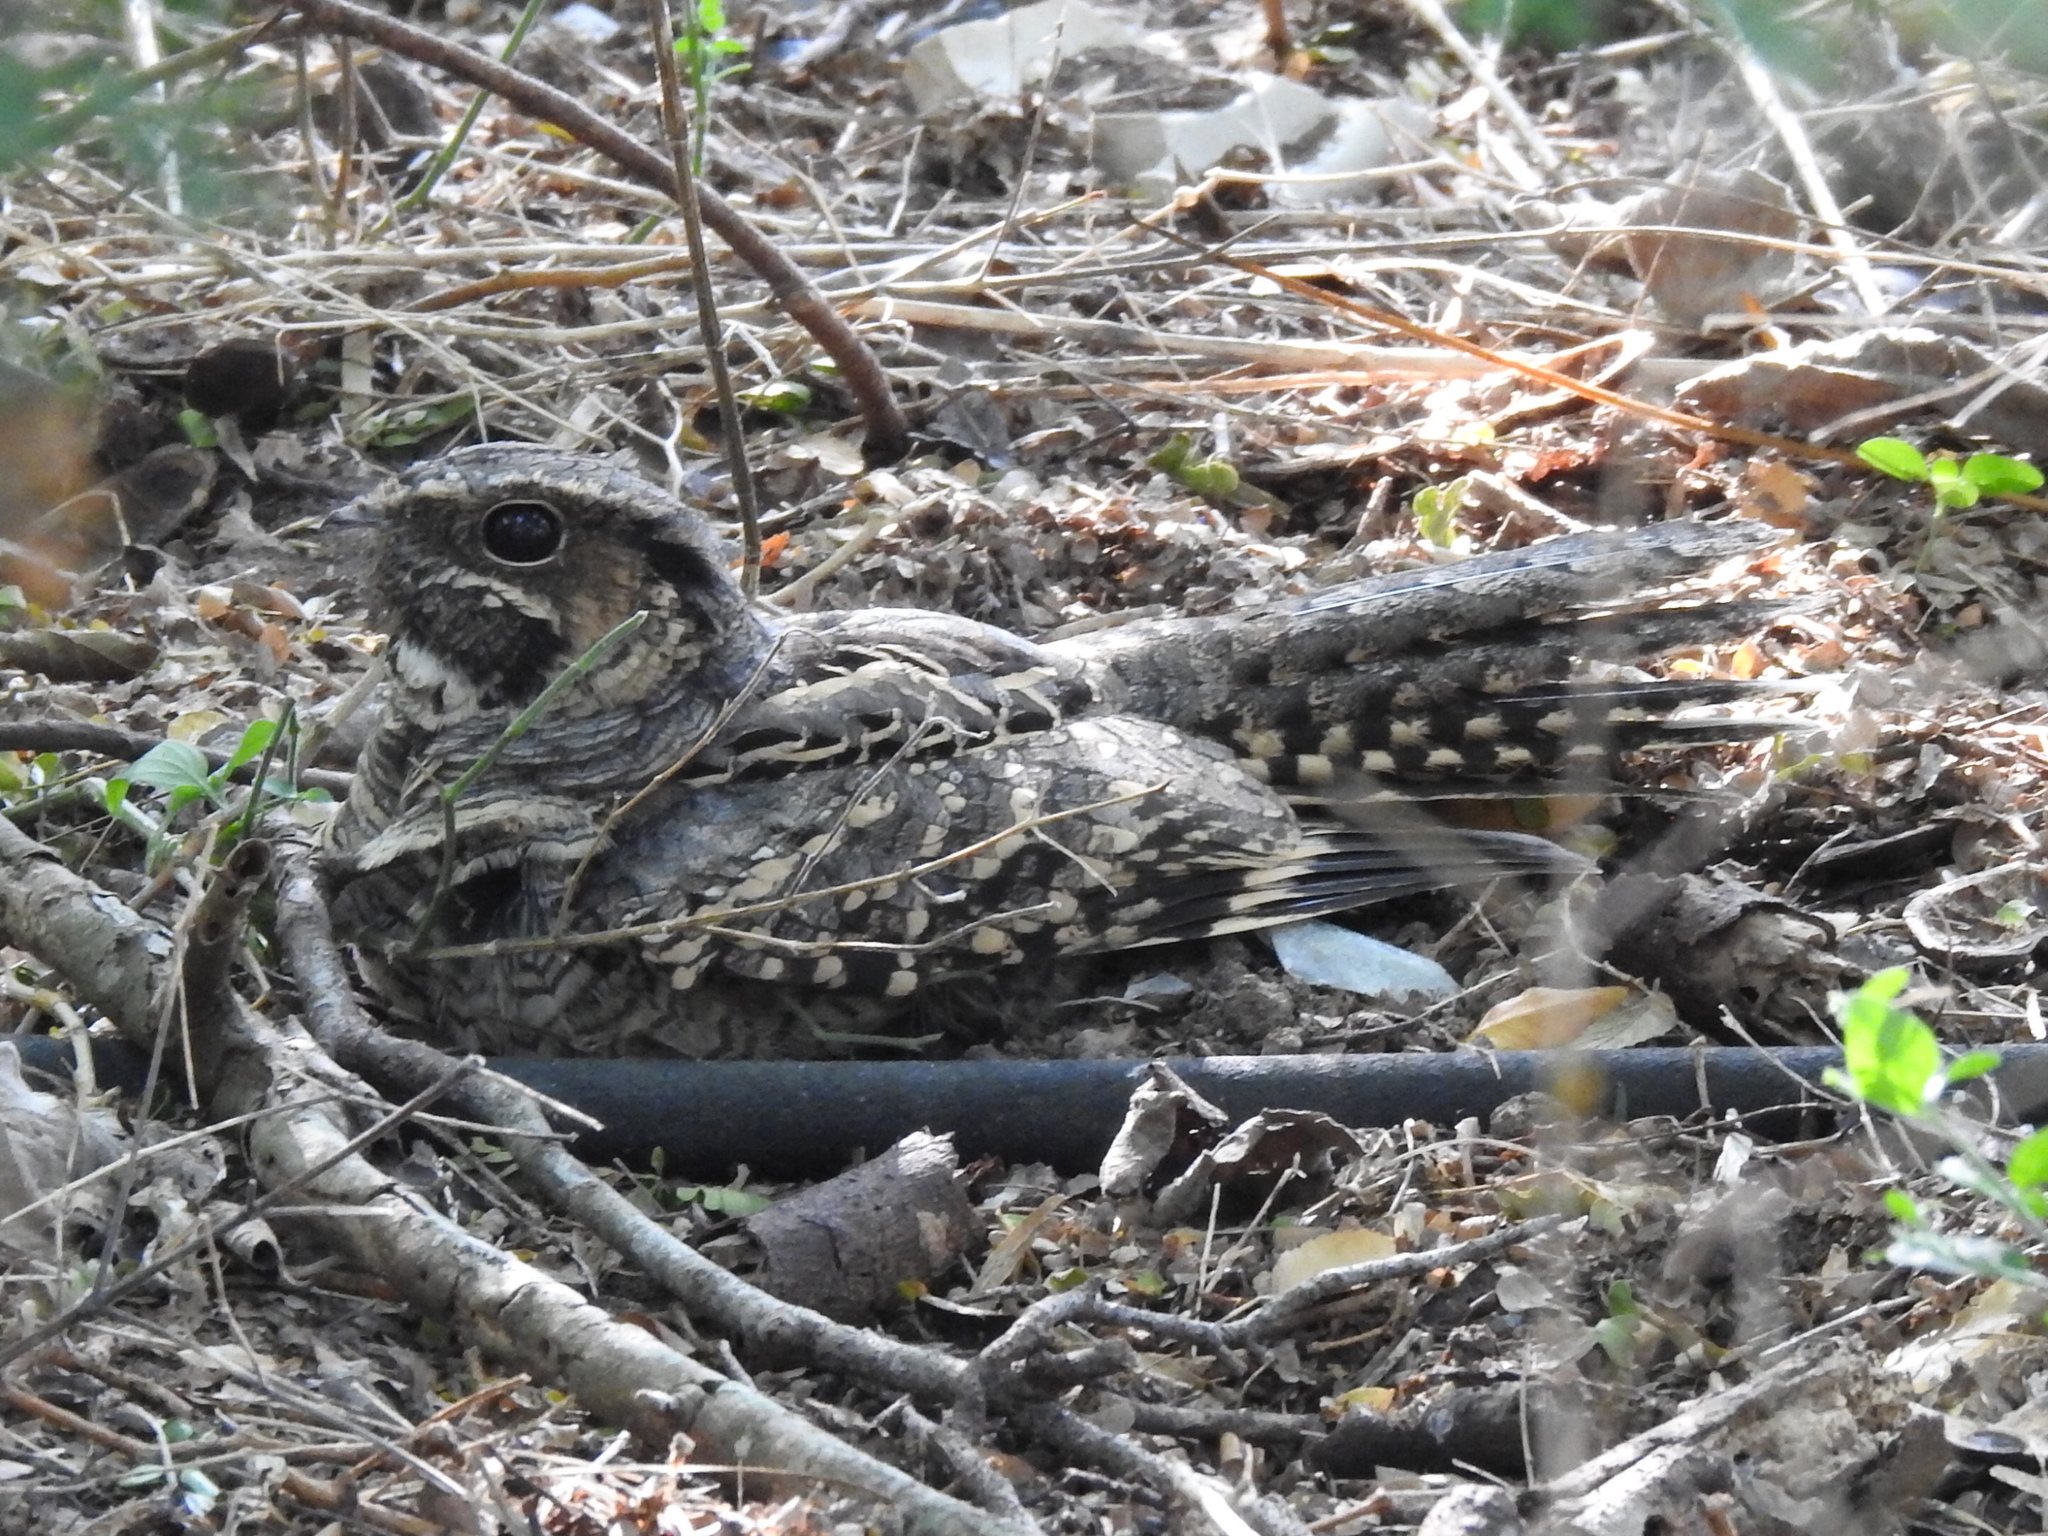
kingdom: Animalia
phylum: Chordata
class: Aves
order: Caprimulgiformes
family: Caprimulgidae
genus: Nyctidromus
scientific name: Nyctidromus albicollis
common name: Pauraque
